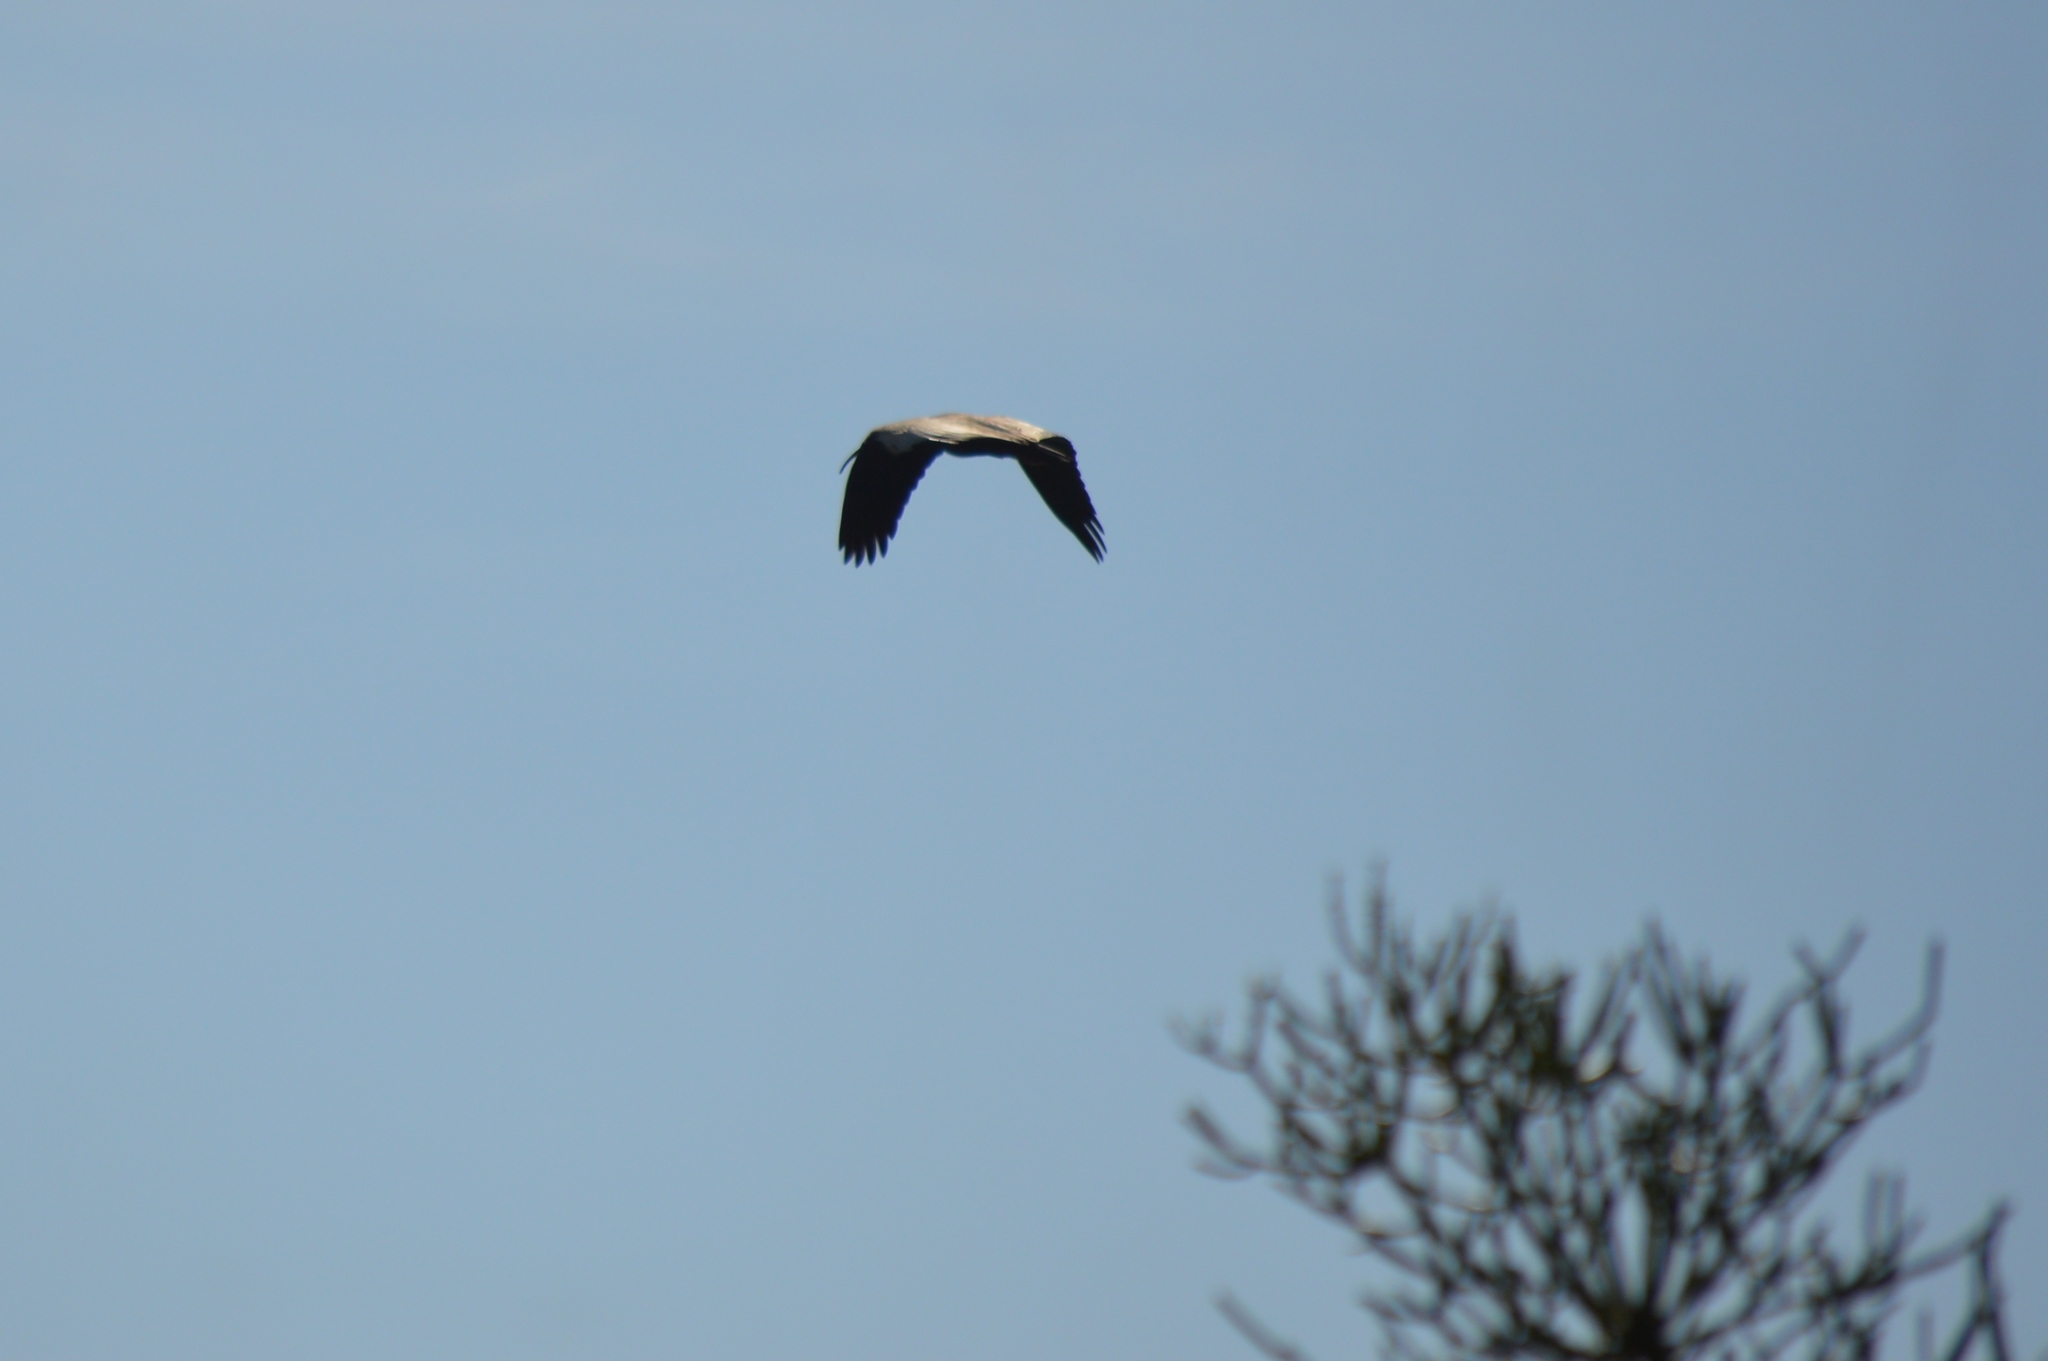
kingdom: Animalia
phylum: Chordata
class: Aves
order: Pelecaniformes
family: Threskiornithidae
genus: Theristicus
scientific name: Theristicus caudatus
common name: Buff-necked ibis
